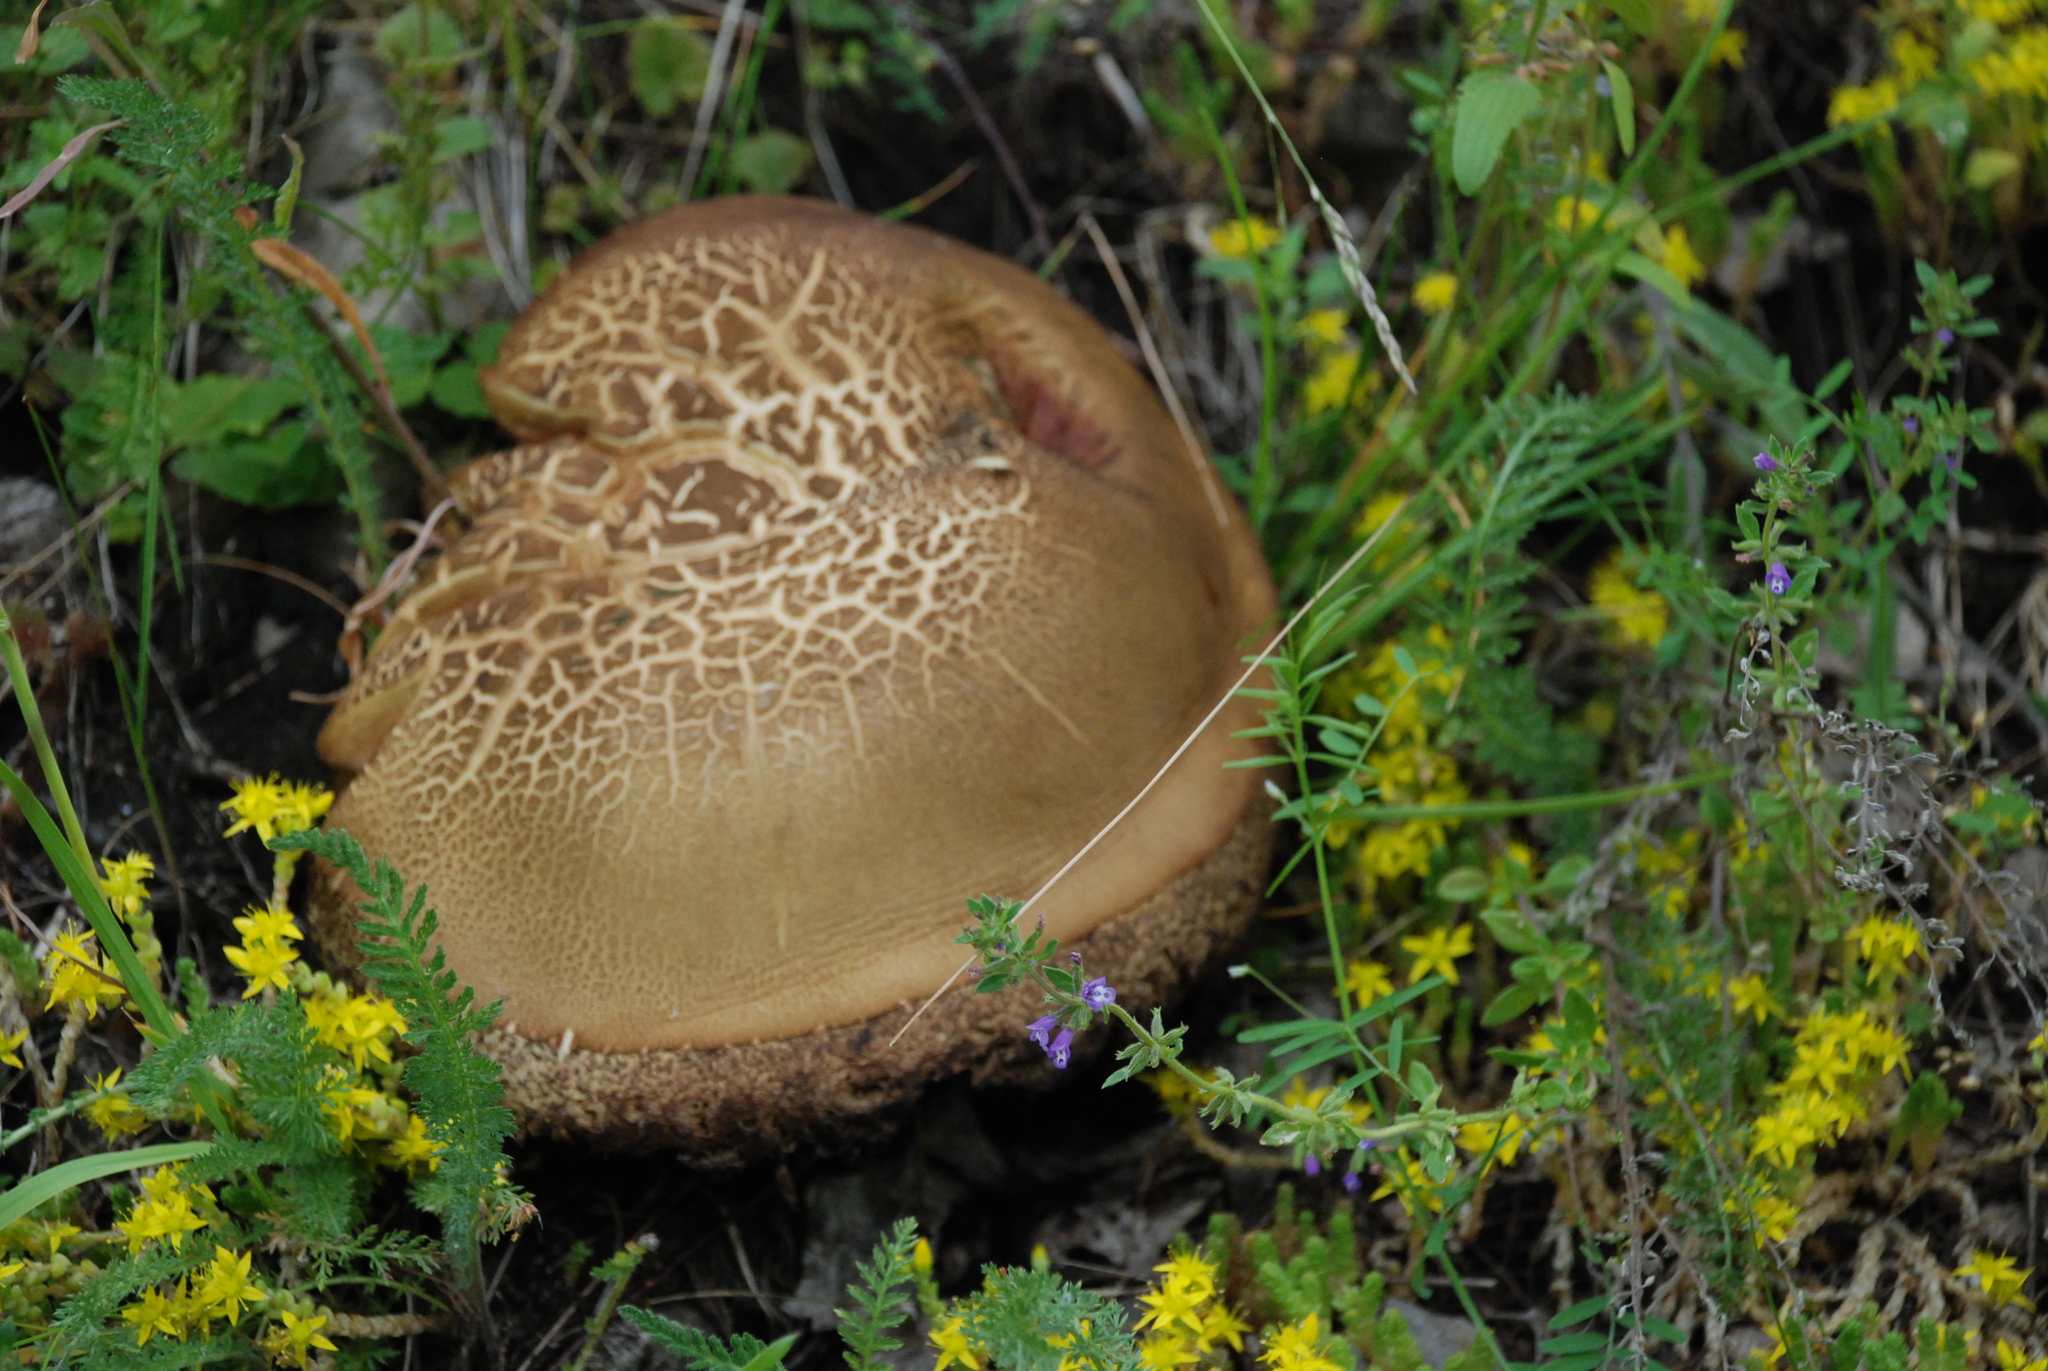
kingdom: Fungi
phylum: Basidiomycota
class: Agaricomycetes
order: Boletales
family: Boletaceae
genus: Leccinum
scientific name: Leccinum scabrum
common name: Blushing bolete
